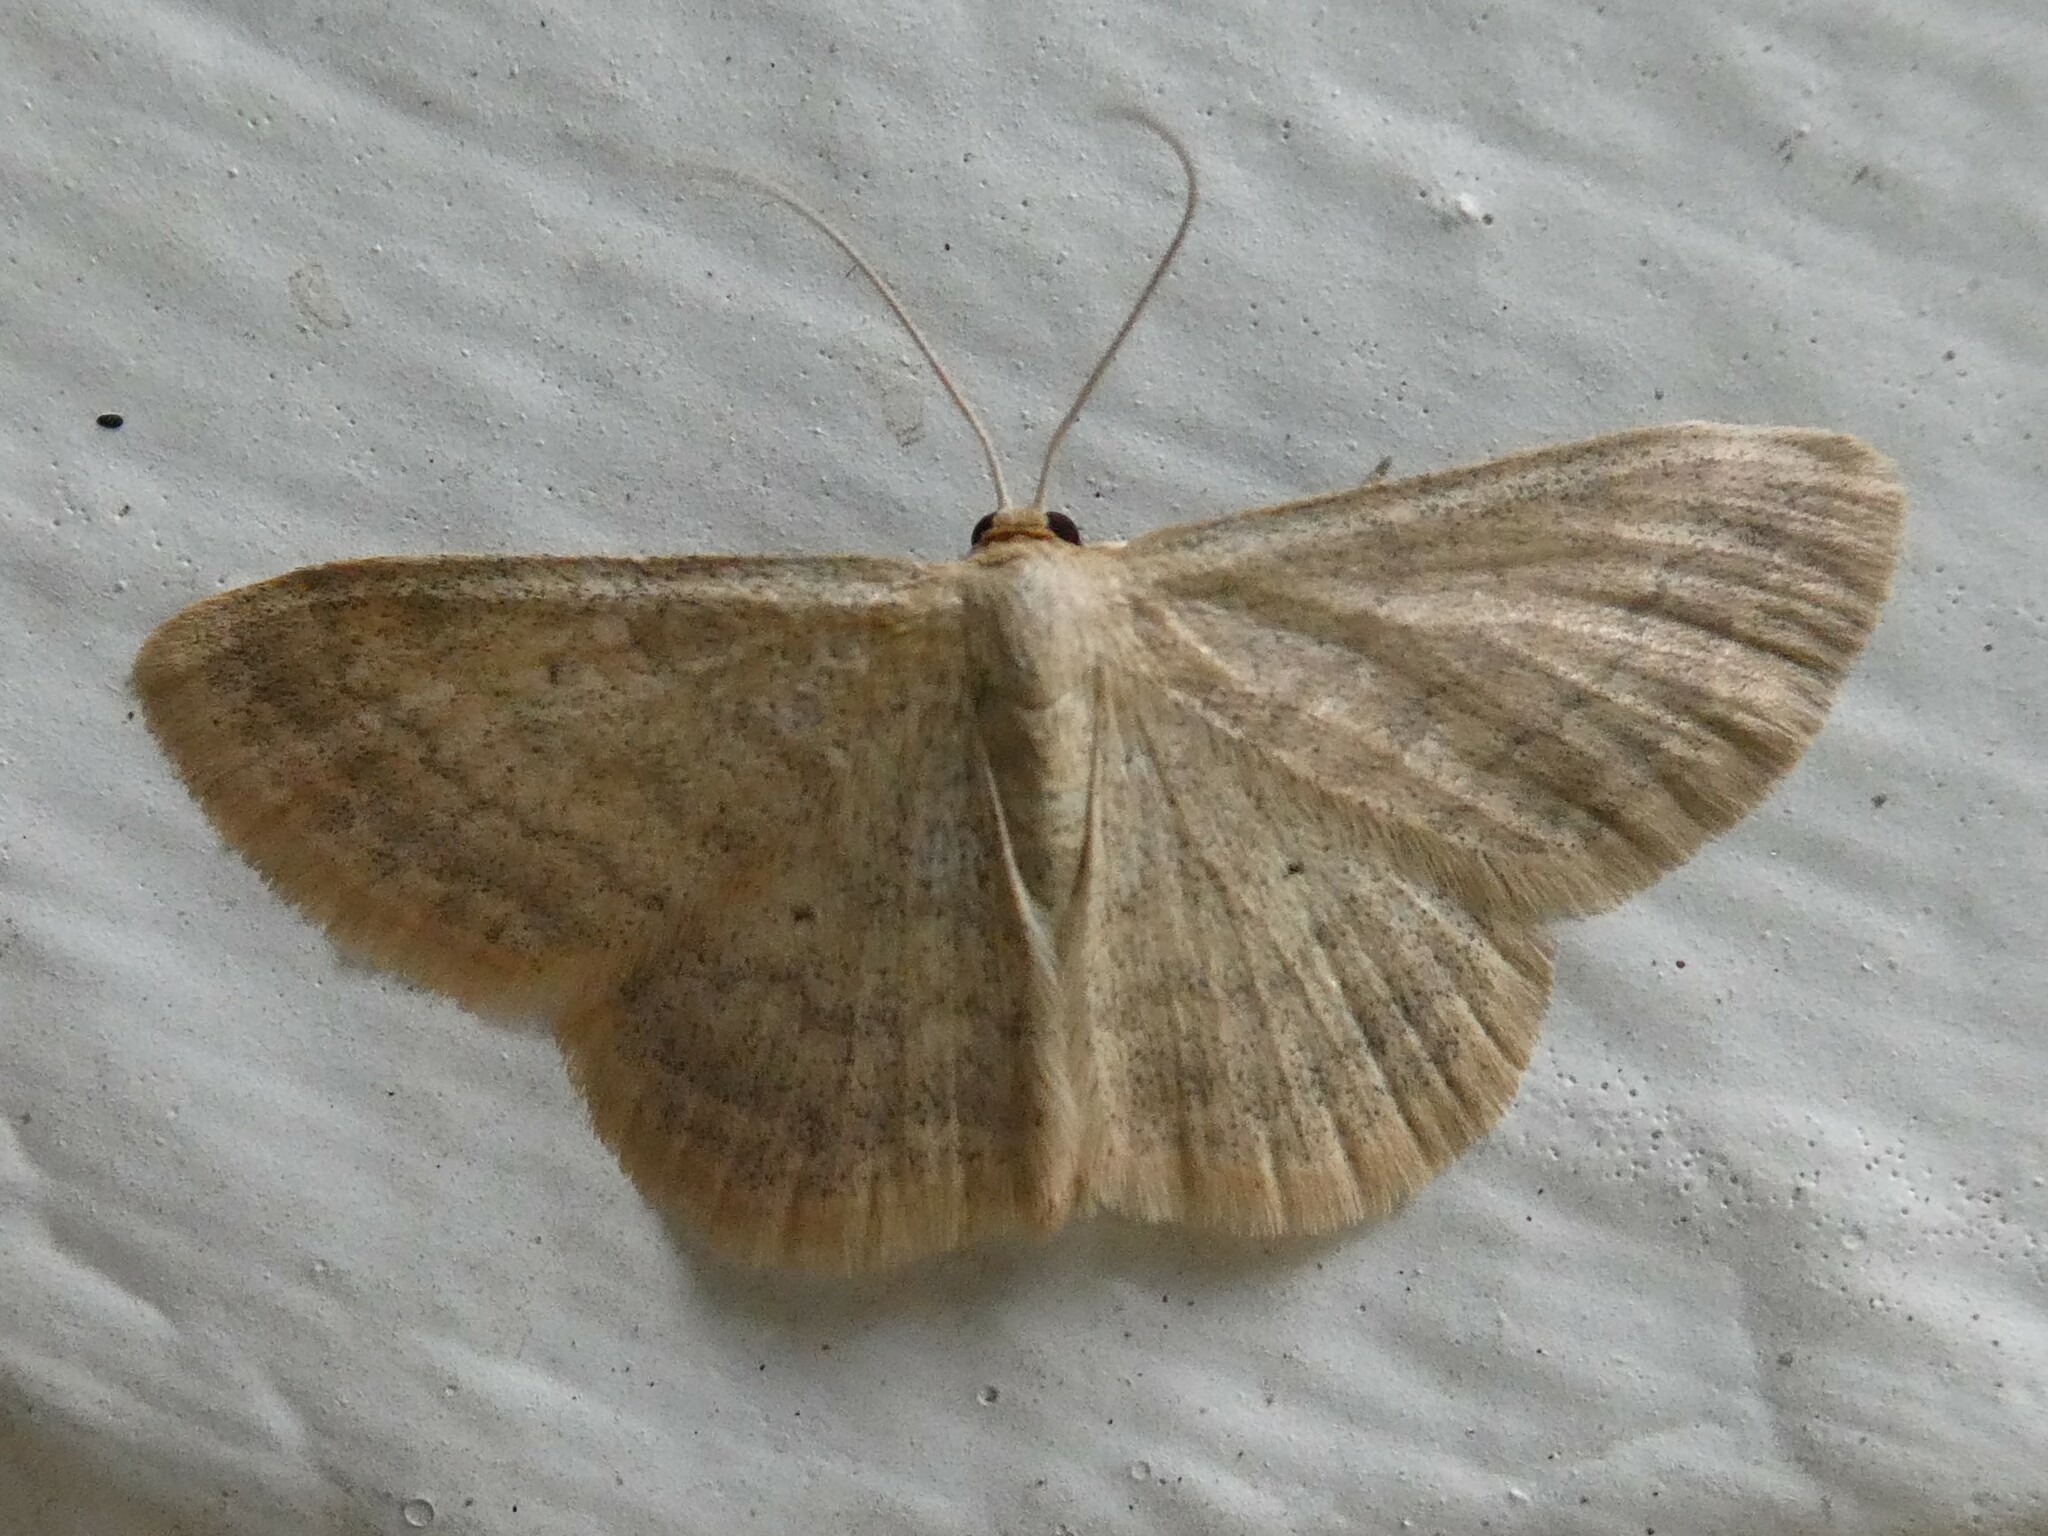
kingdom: Animalia
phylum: Arthropoda
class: Insecta
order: Lepidoptera
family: Geometridae
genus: Scopula
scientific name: Scopula inductata
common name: Soft-lined wave
